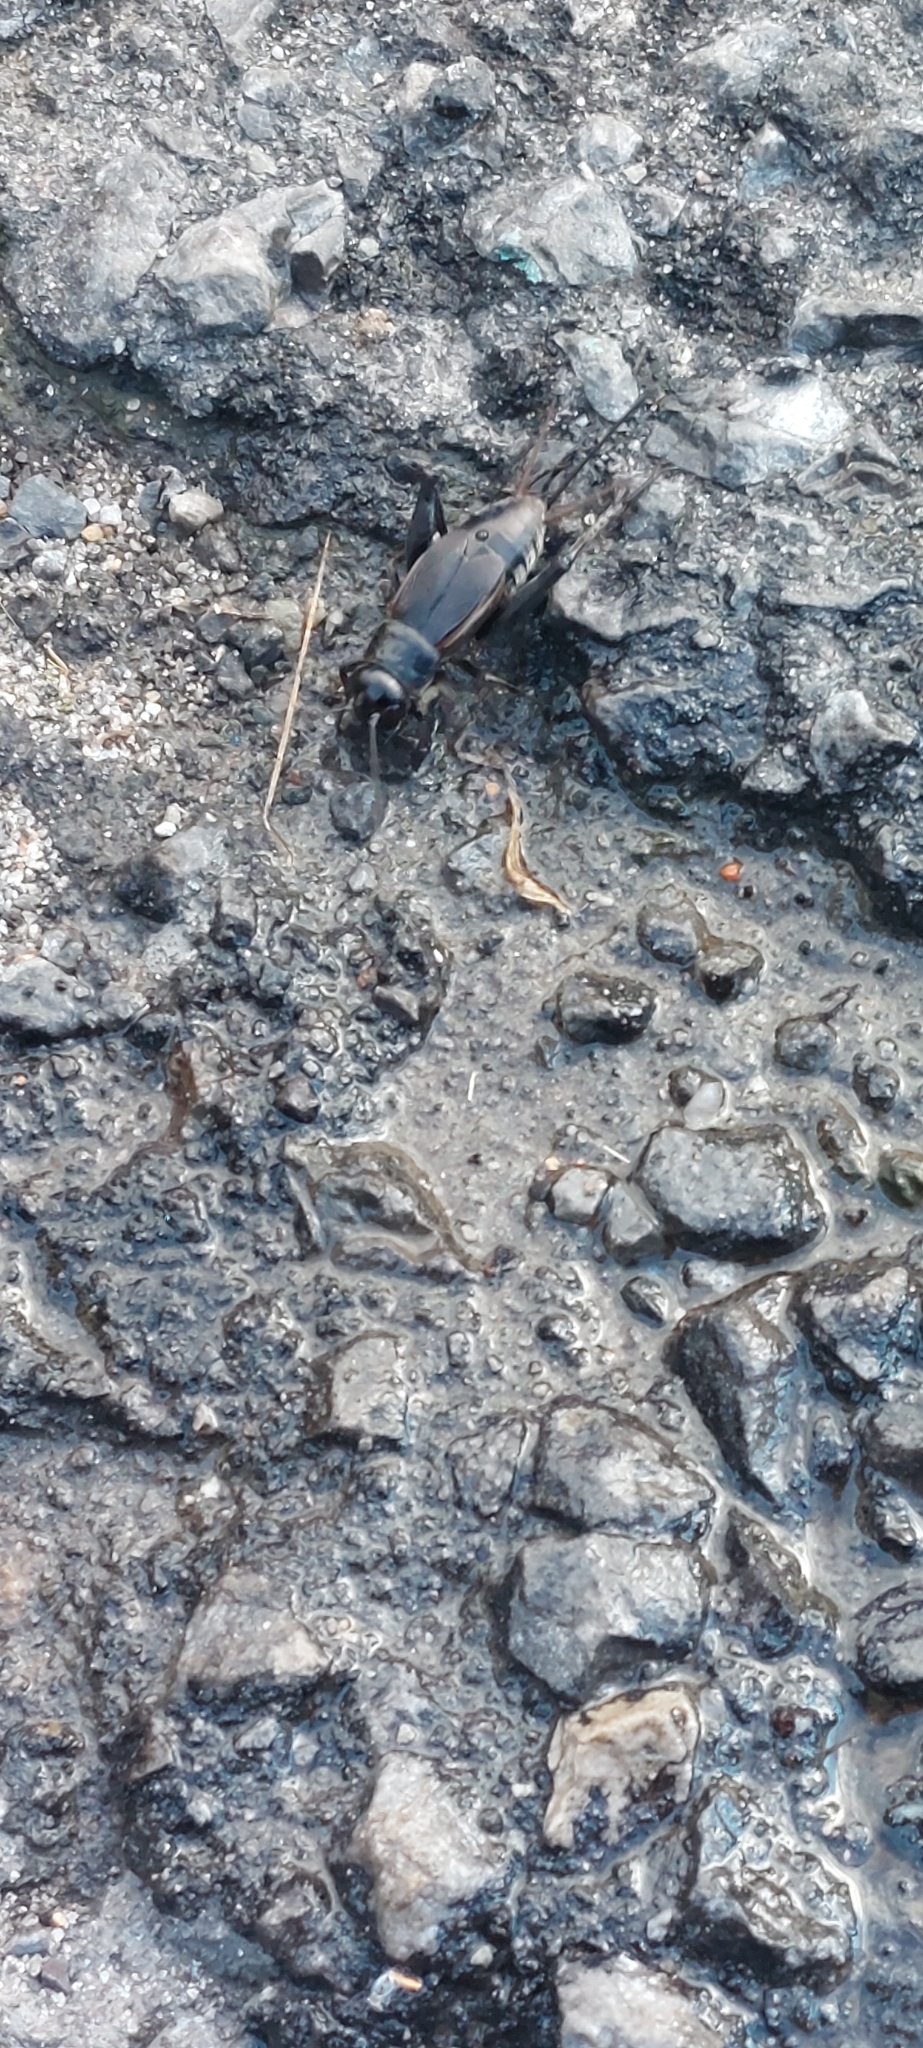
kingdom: Animalia
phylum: Arthropoda
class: Insecta
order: Orthoptera
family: Gryllidae
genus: Gryllus
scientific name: Gryllus pennsylvanicus
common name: Fall field cricket
